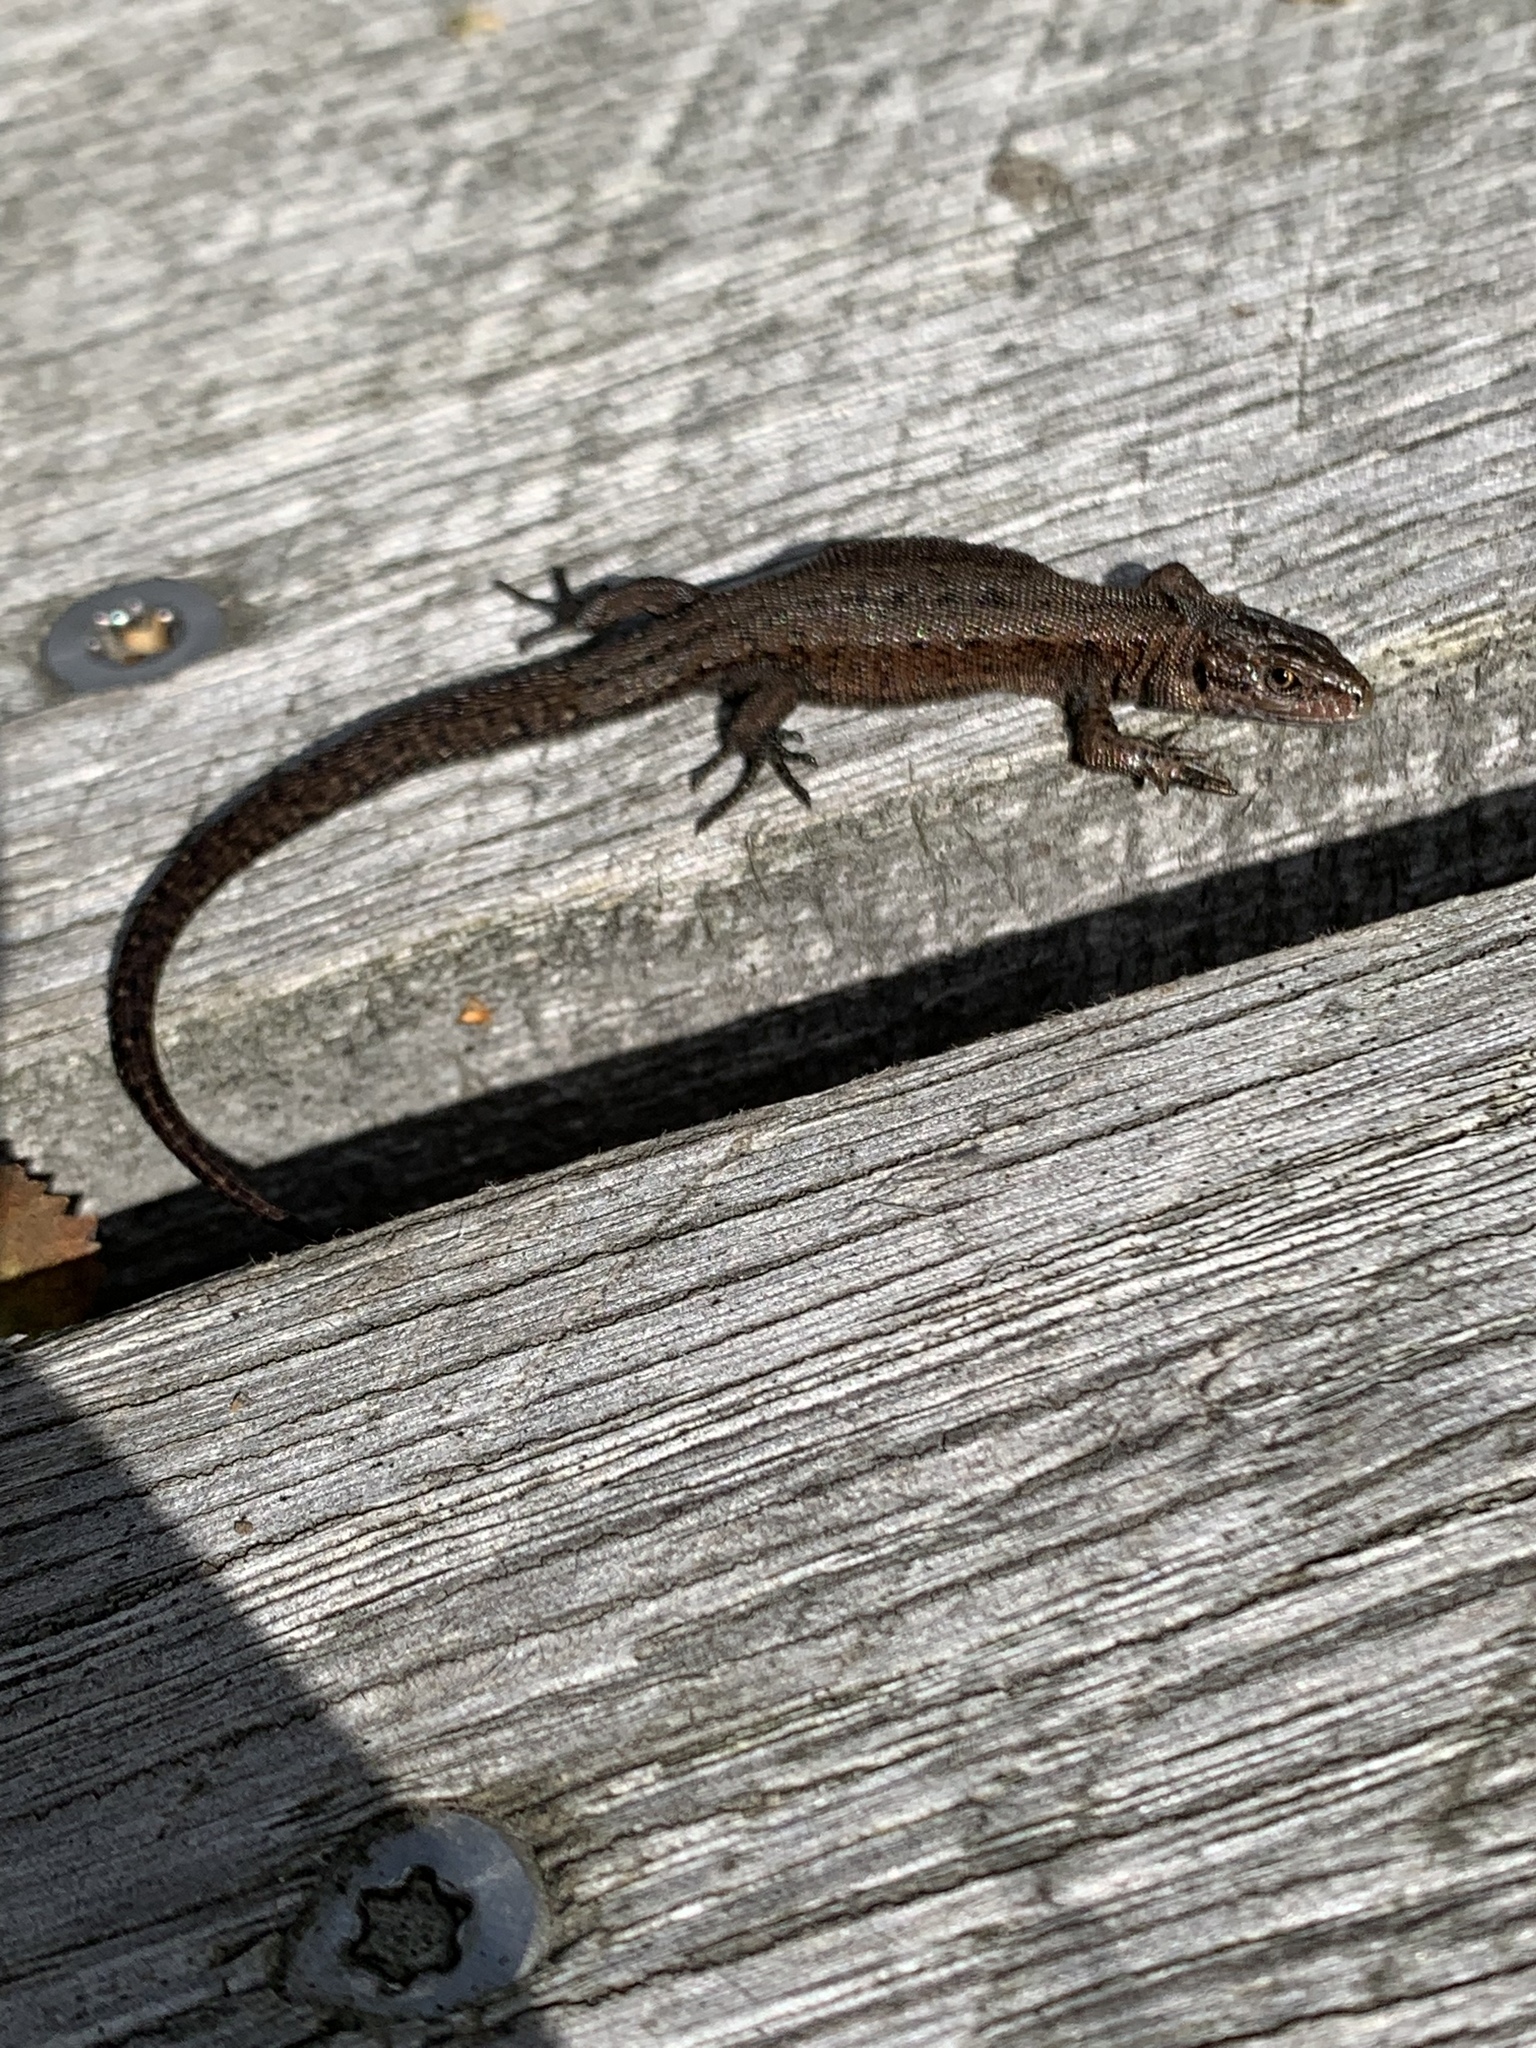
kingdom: Animalia
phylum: Chordata
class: Squamata
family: Lacertidae
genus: Zootoca
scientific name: Zootoca vivipara
